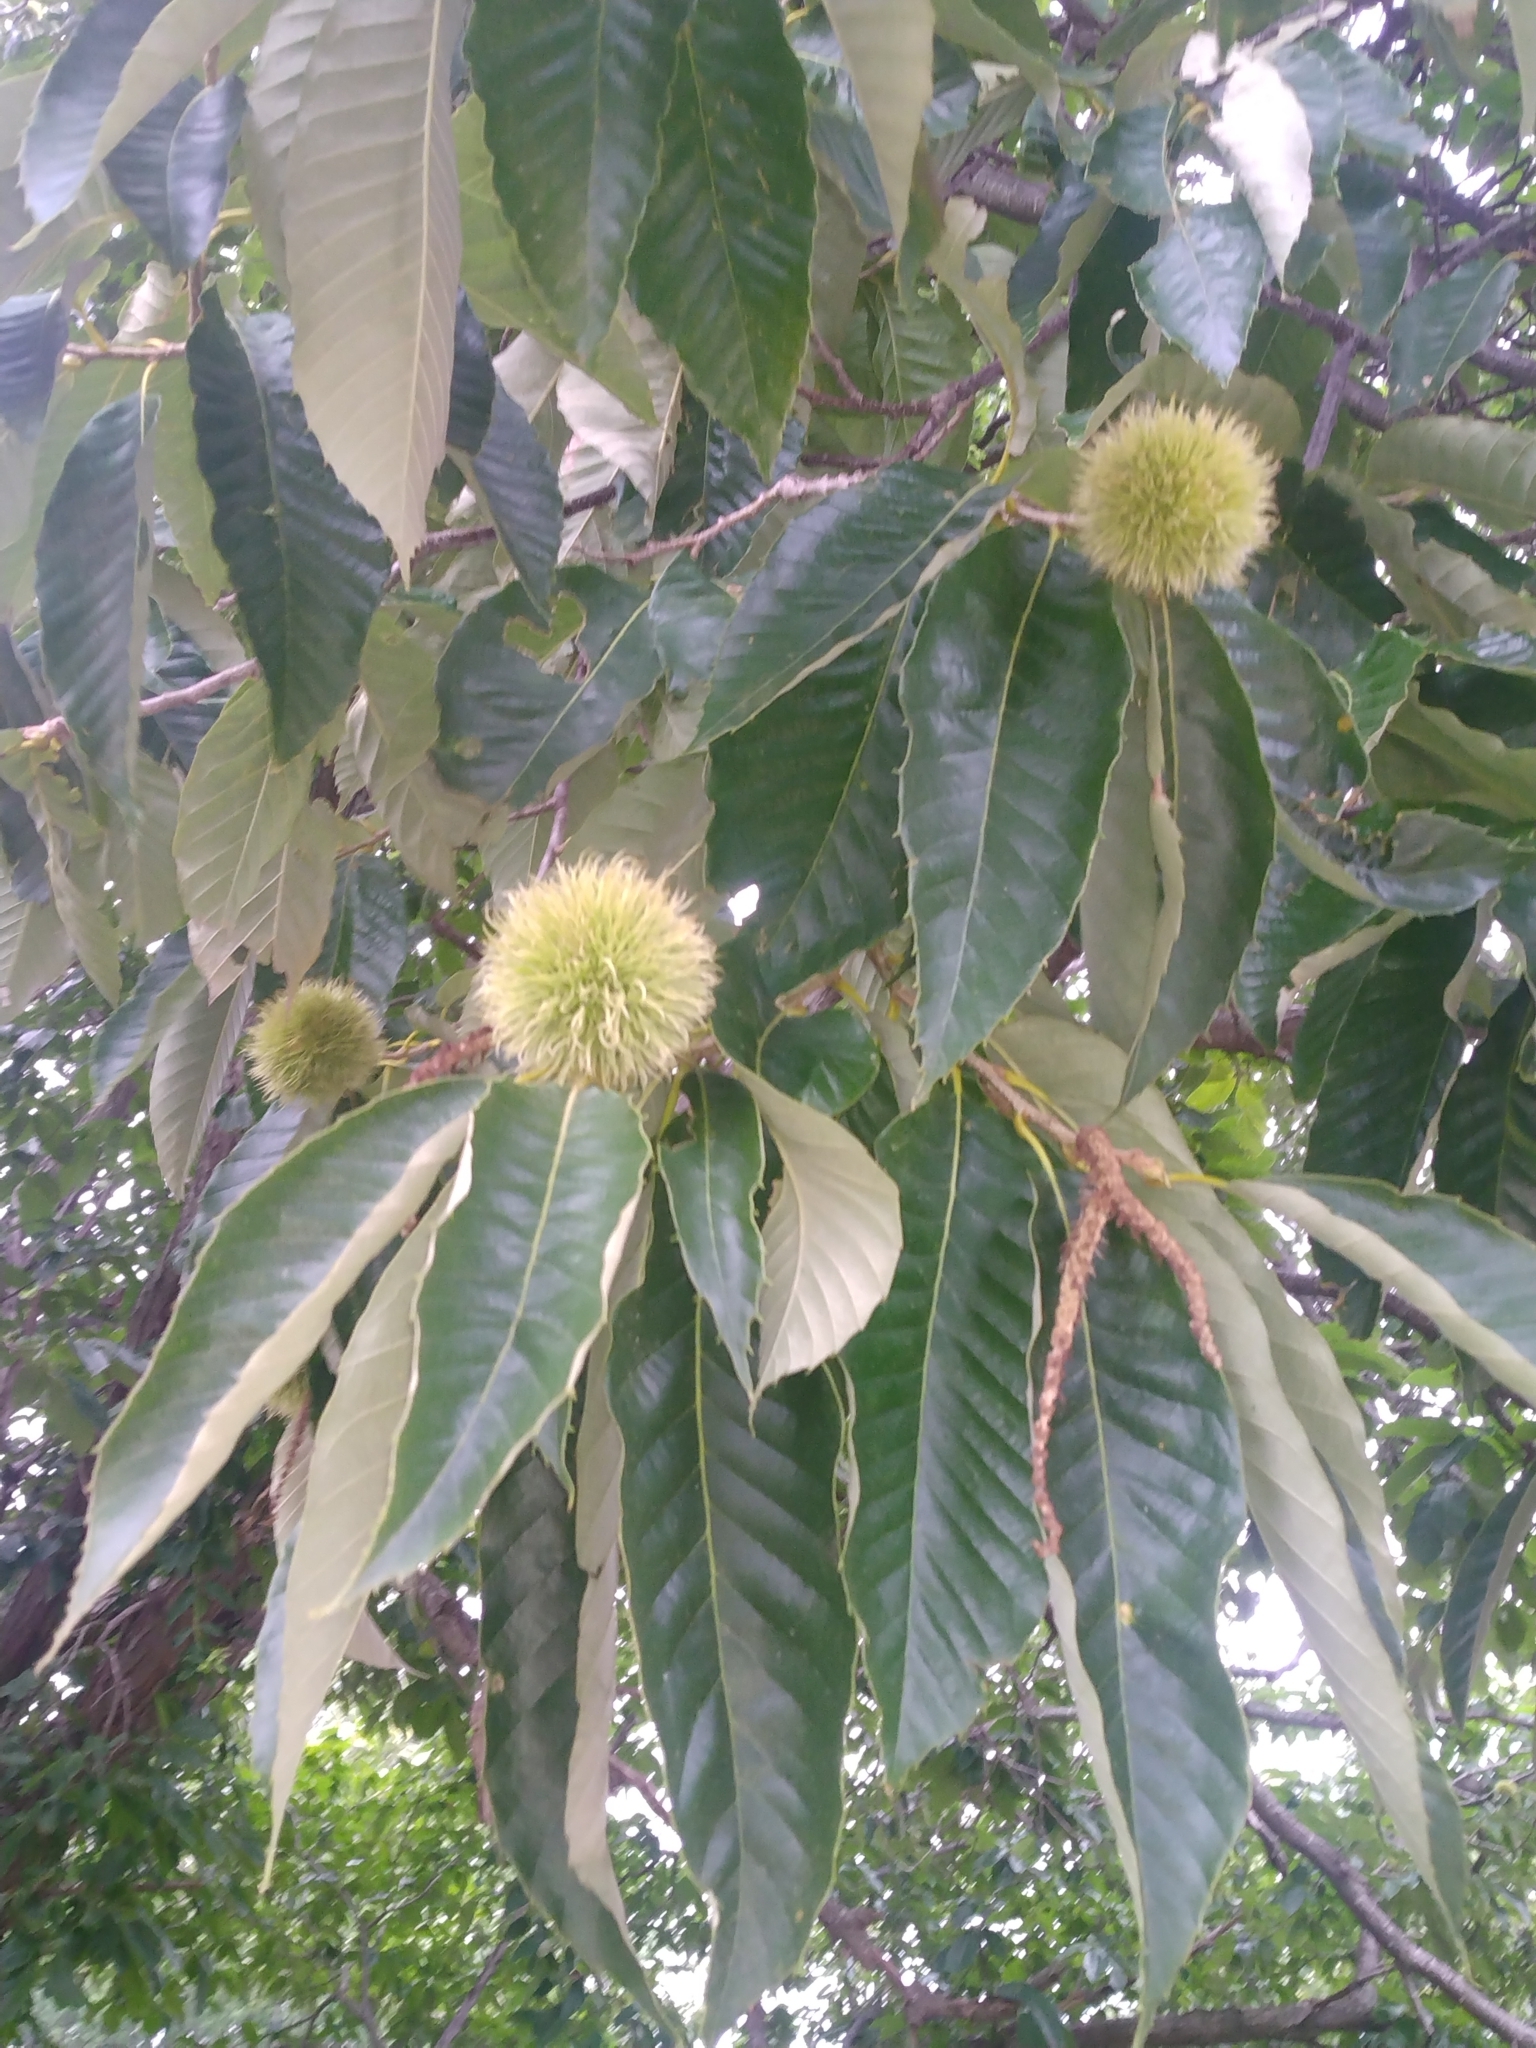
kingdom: Plantae
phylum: Tracheophyta
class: Magnoliopsida
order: Fagales
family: Fagaceae
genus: Castanea
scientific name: Castanea mollissima
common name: Chinese chestnut
